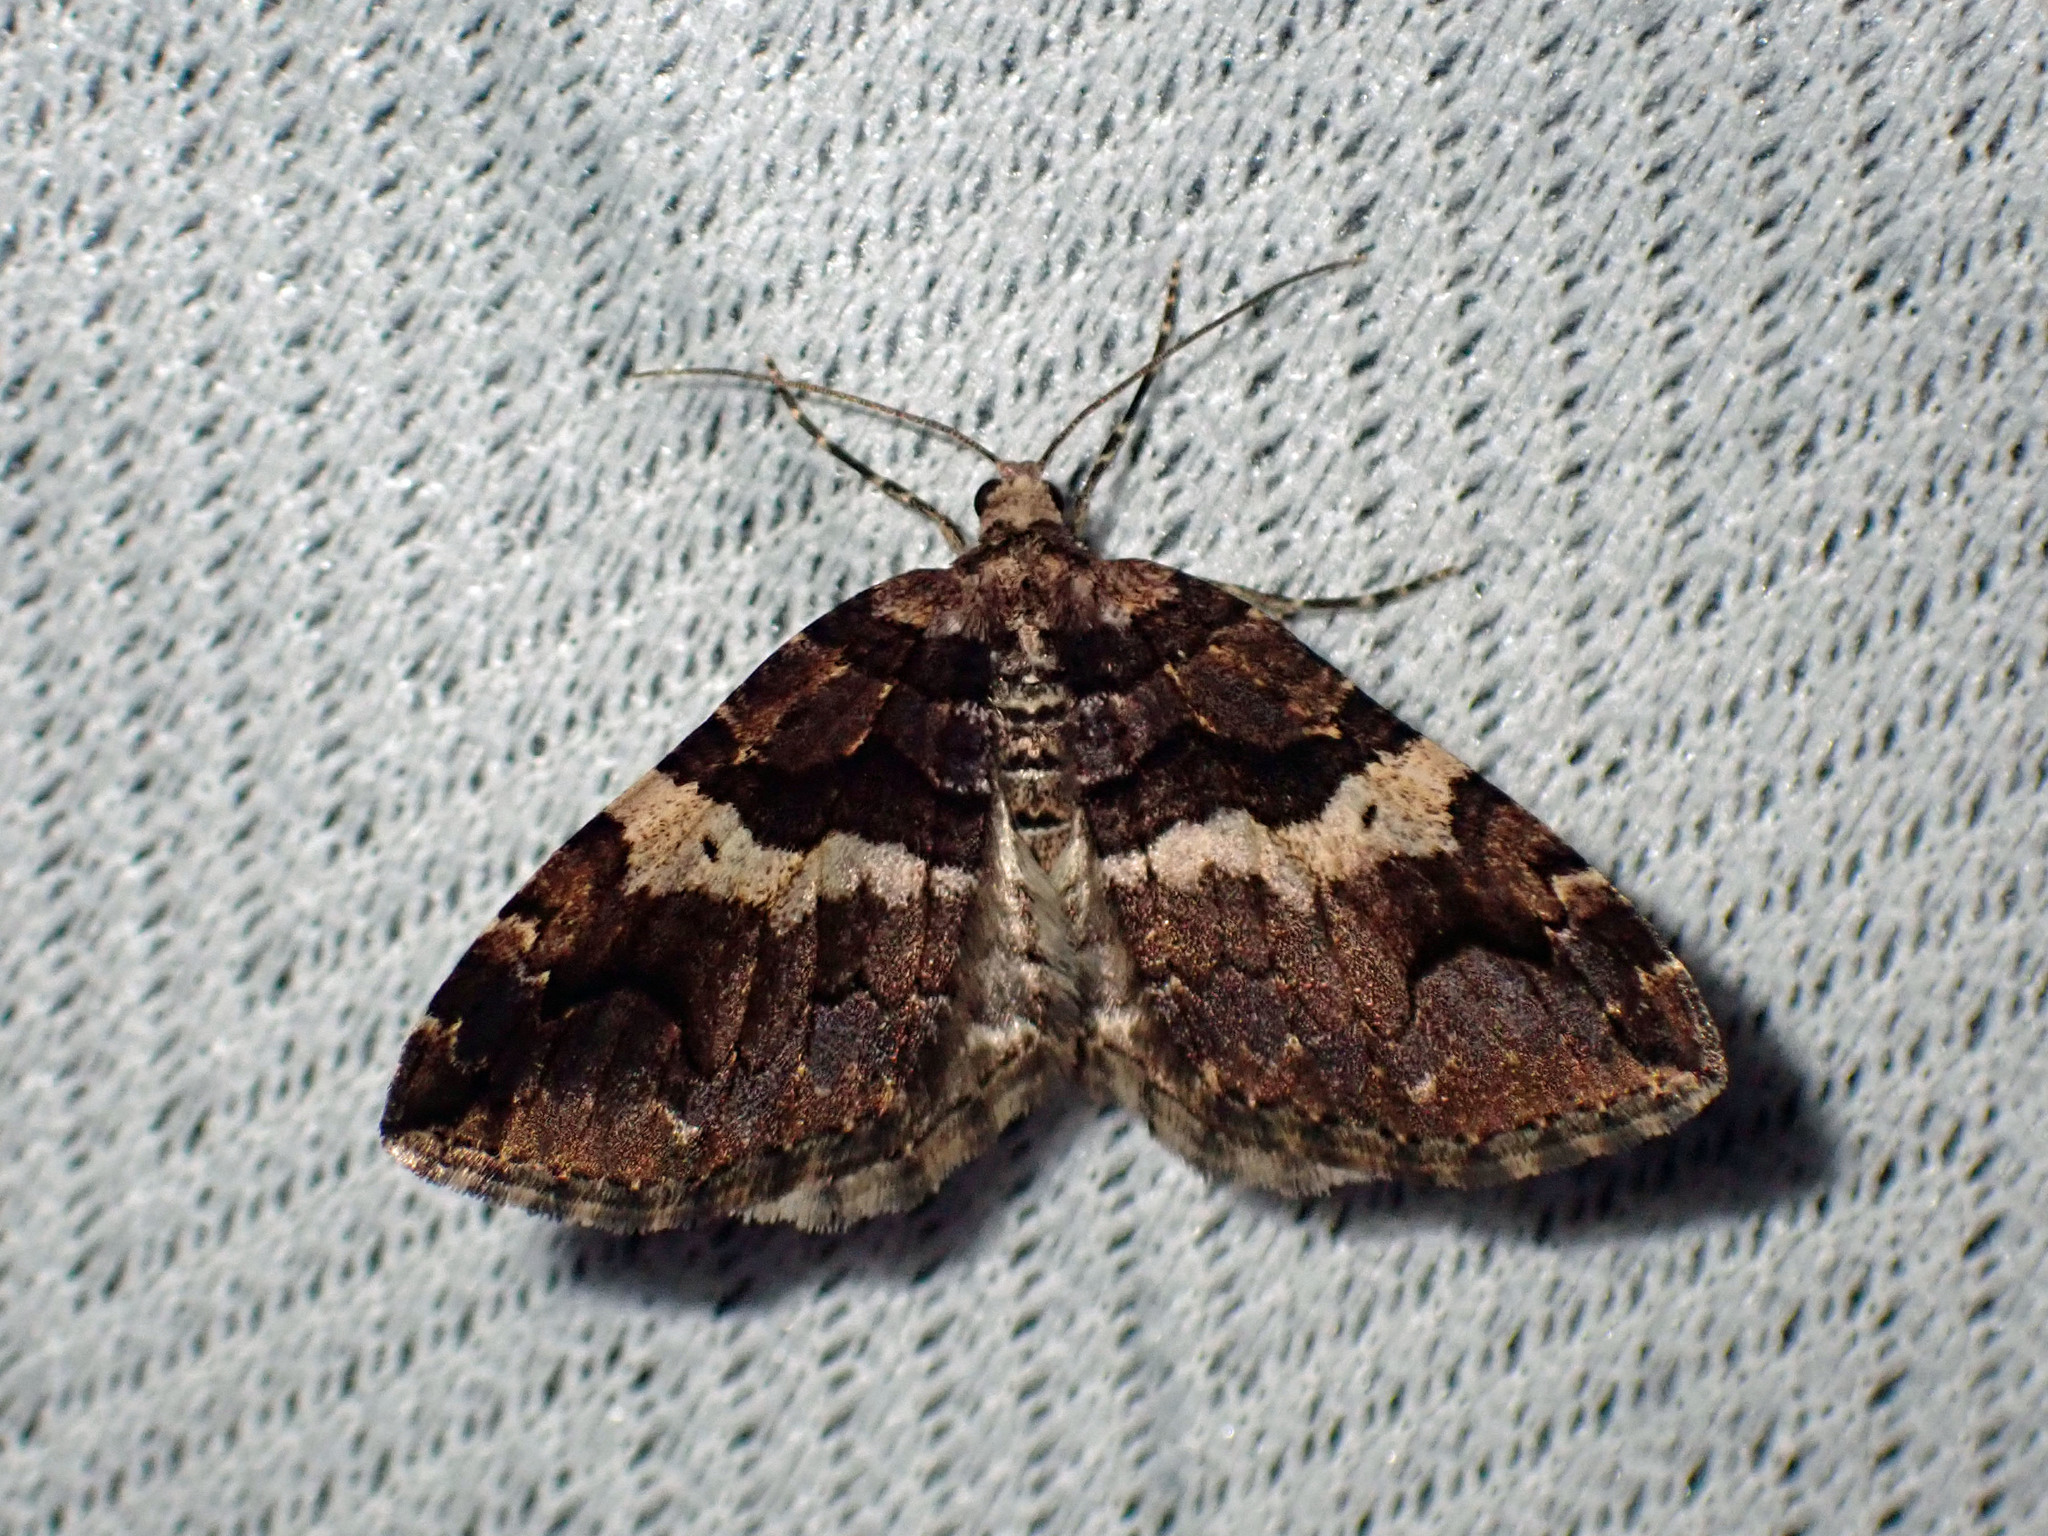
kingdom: Animalia
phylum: Arthropoda
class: Insecta
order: Lepidoptera
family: Geometridae
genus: Anticlea
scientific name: Anticlea vasiliata
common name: Variable carpet
